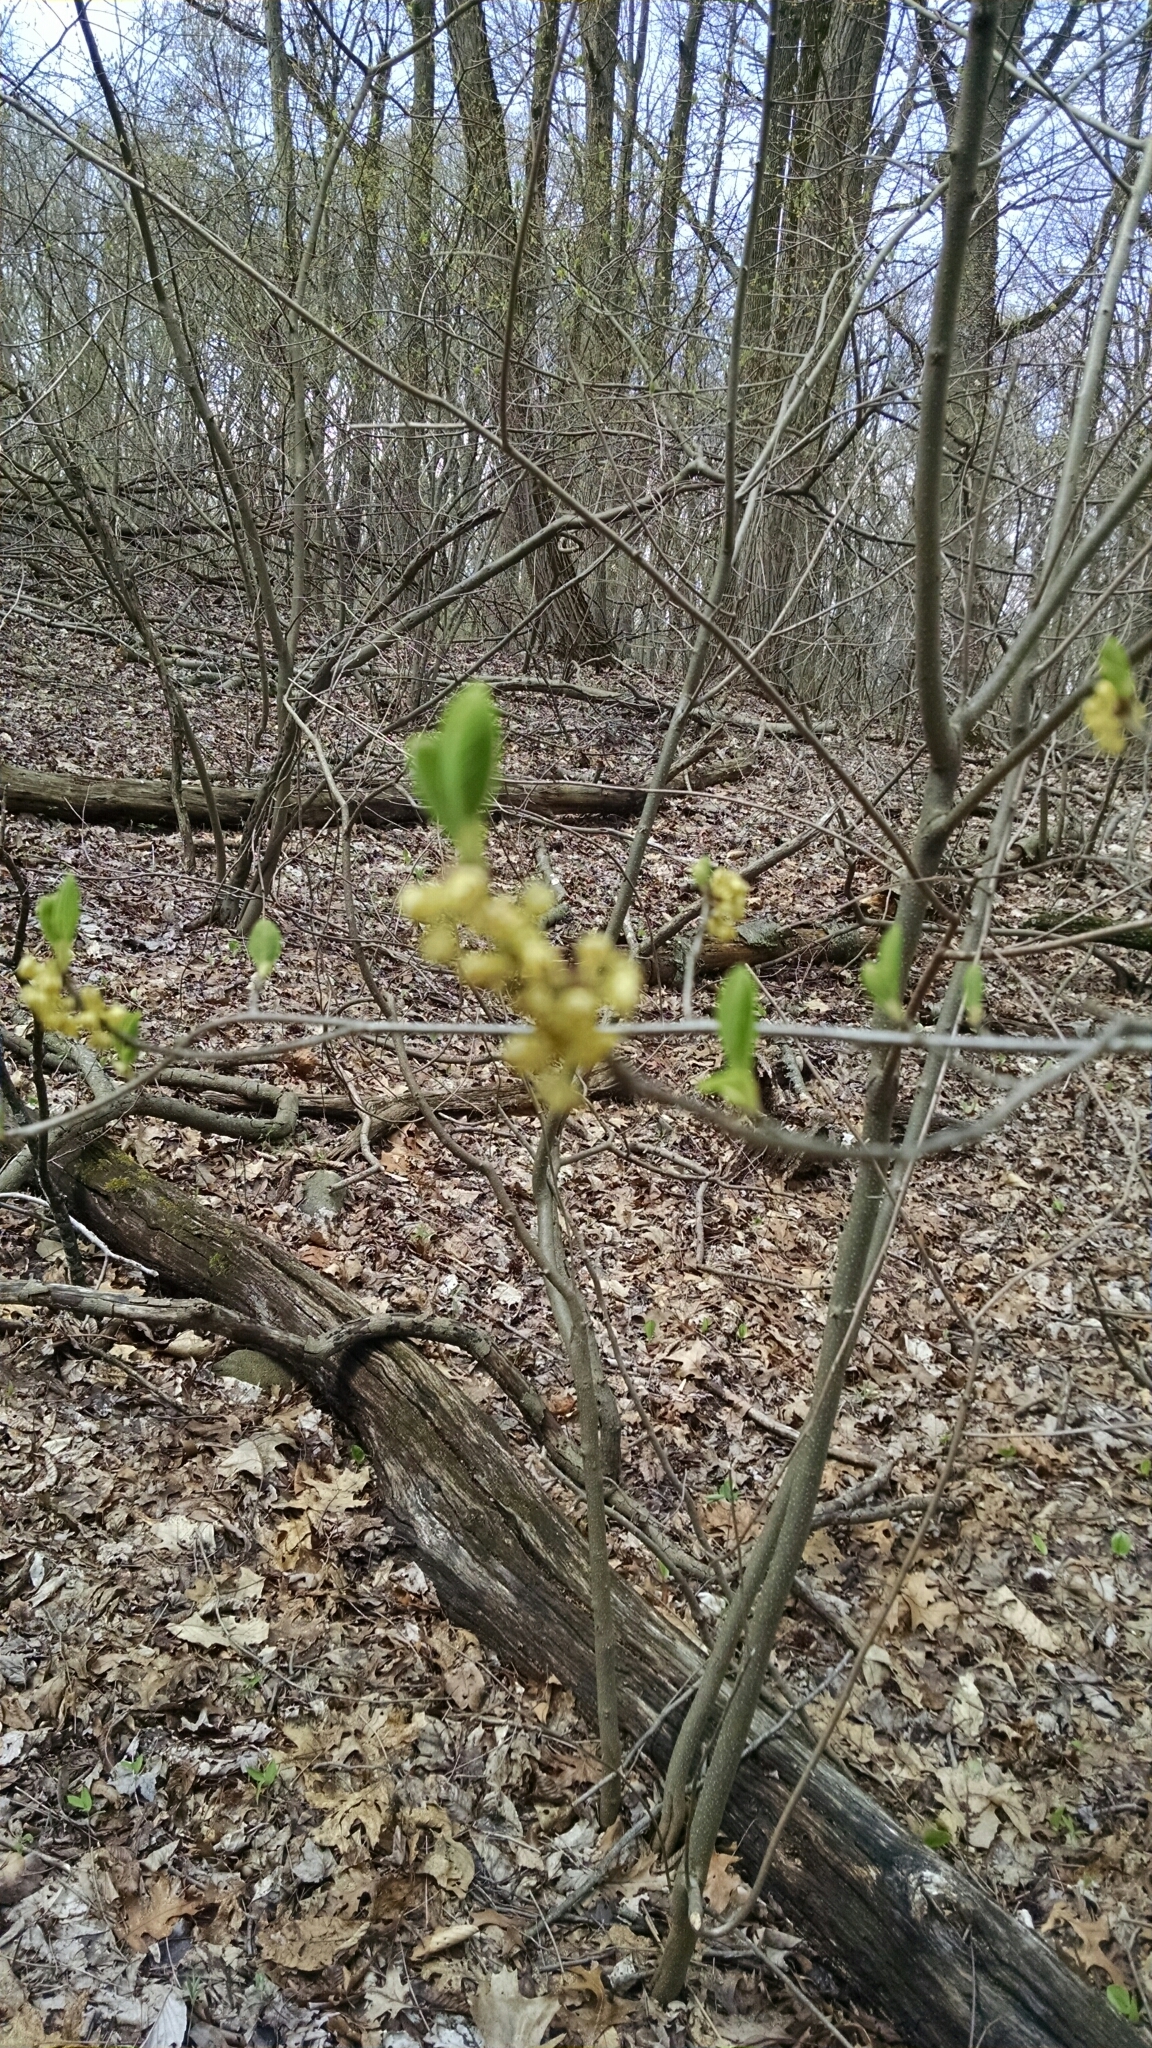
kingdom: Plantae
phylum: Tracheophyta
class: Magnoliopsida
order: Laurales
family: Lauraceae
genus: Lindera
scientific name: Lindera benzoin
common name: Spicebush
